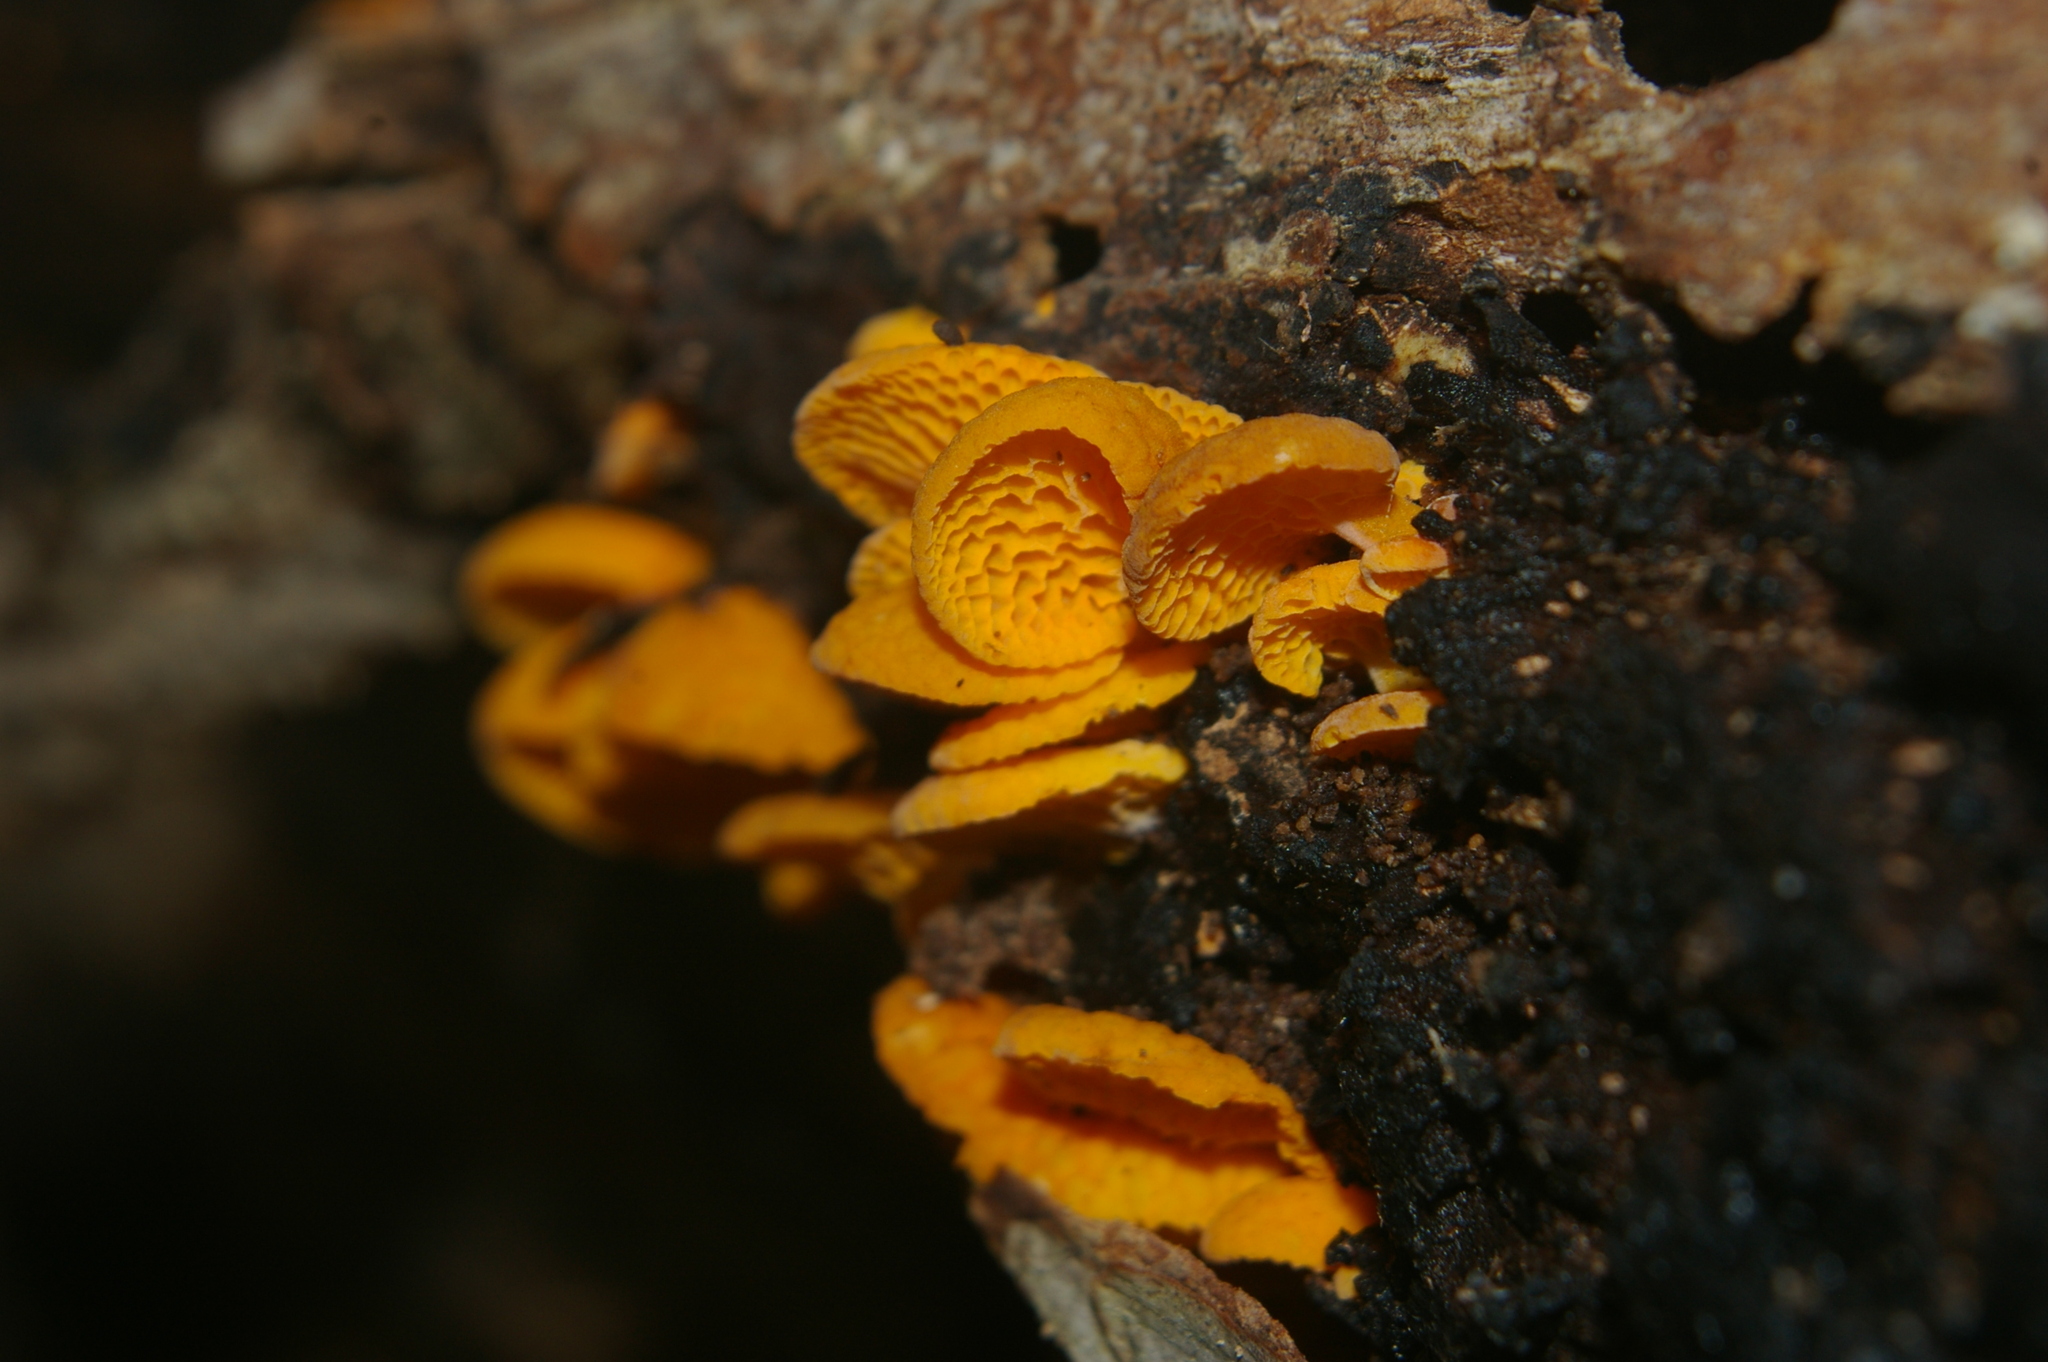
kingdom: Fungi
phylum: Basidiomycota
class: Agaricomycetes
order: Agaricales
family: Mycenaceae
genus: Favolaschia
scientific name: Favolaschia claudopus
